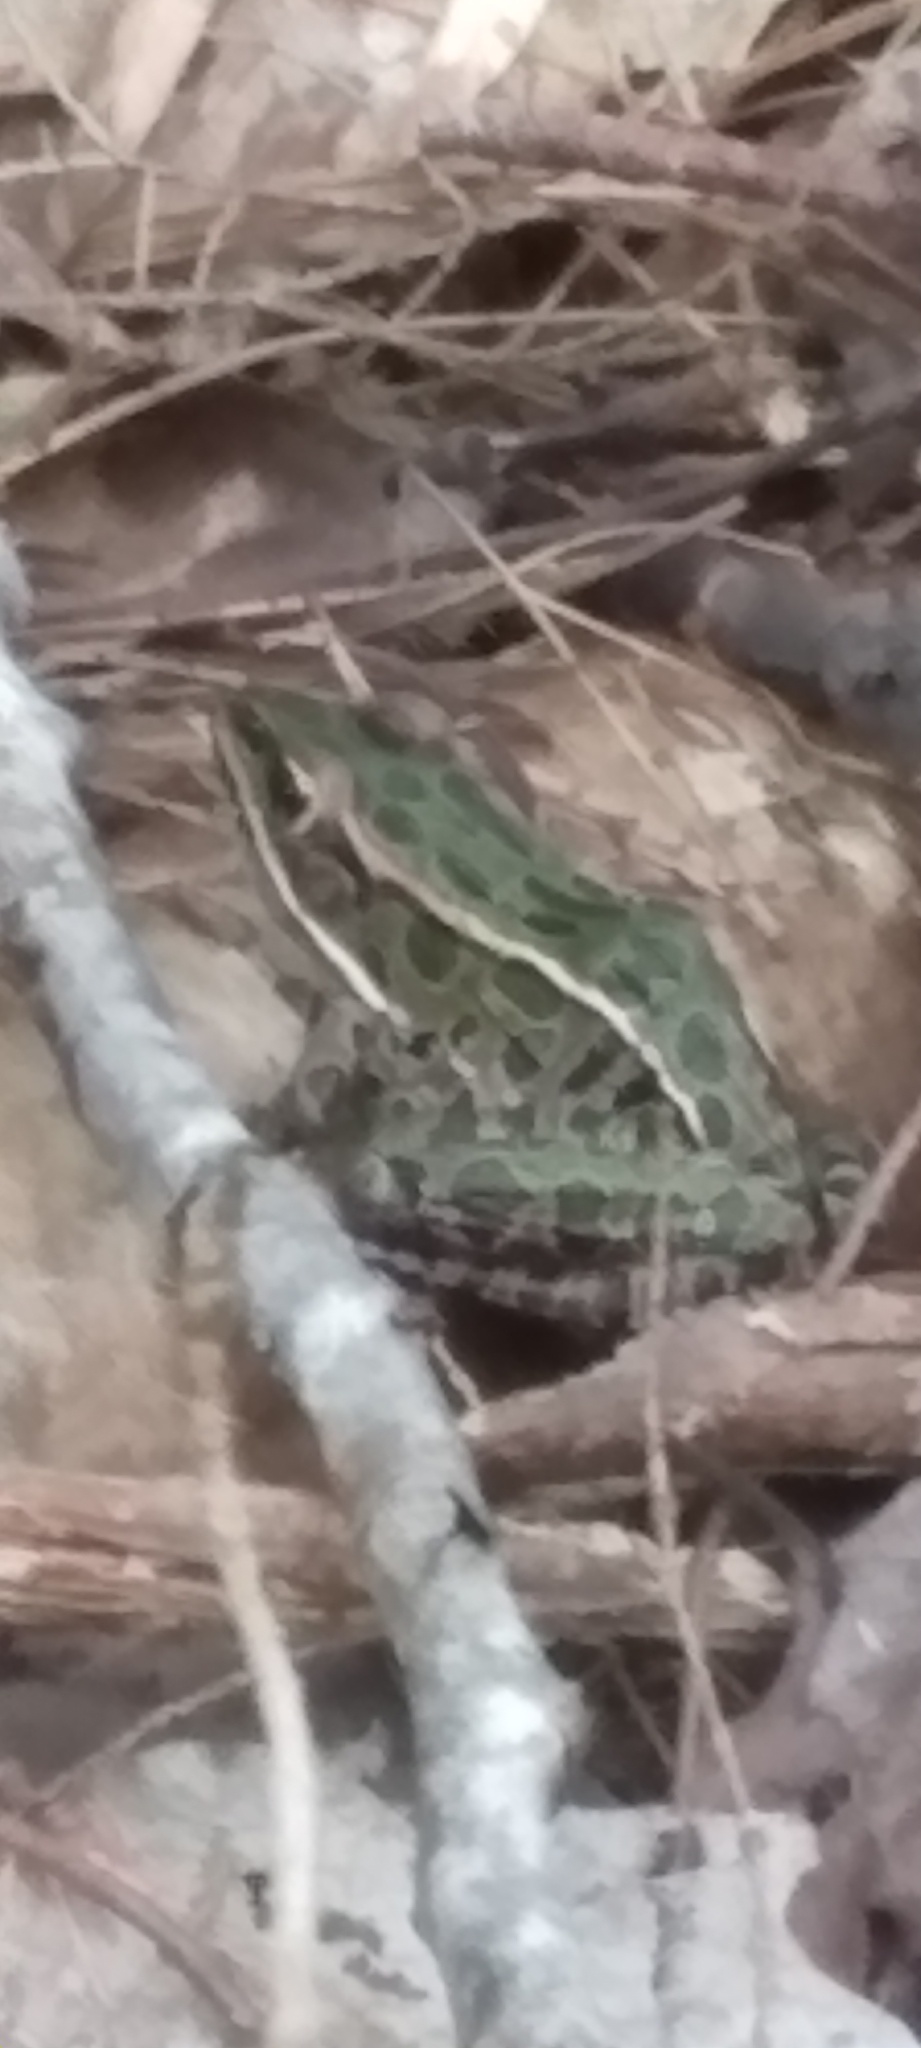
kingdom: Animalia
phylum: Chordata
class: Amphibia
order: Anura
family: Ranidae
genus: Lithobates
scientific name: Lithobates pipiens
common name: Northern leopard frog
